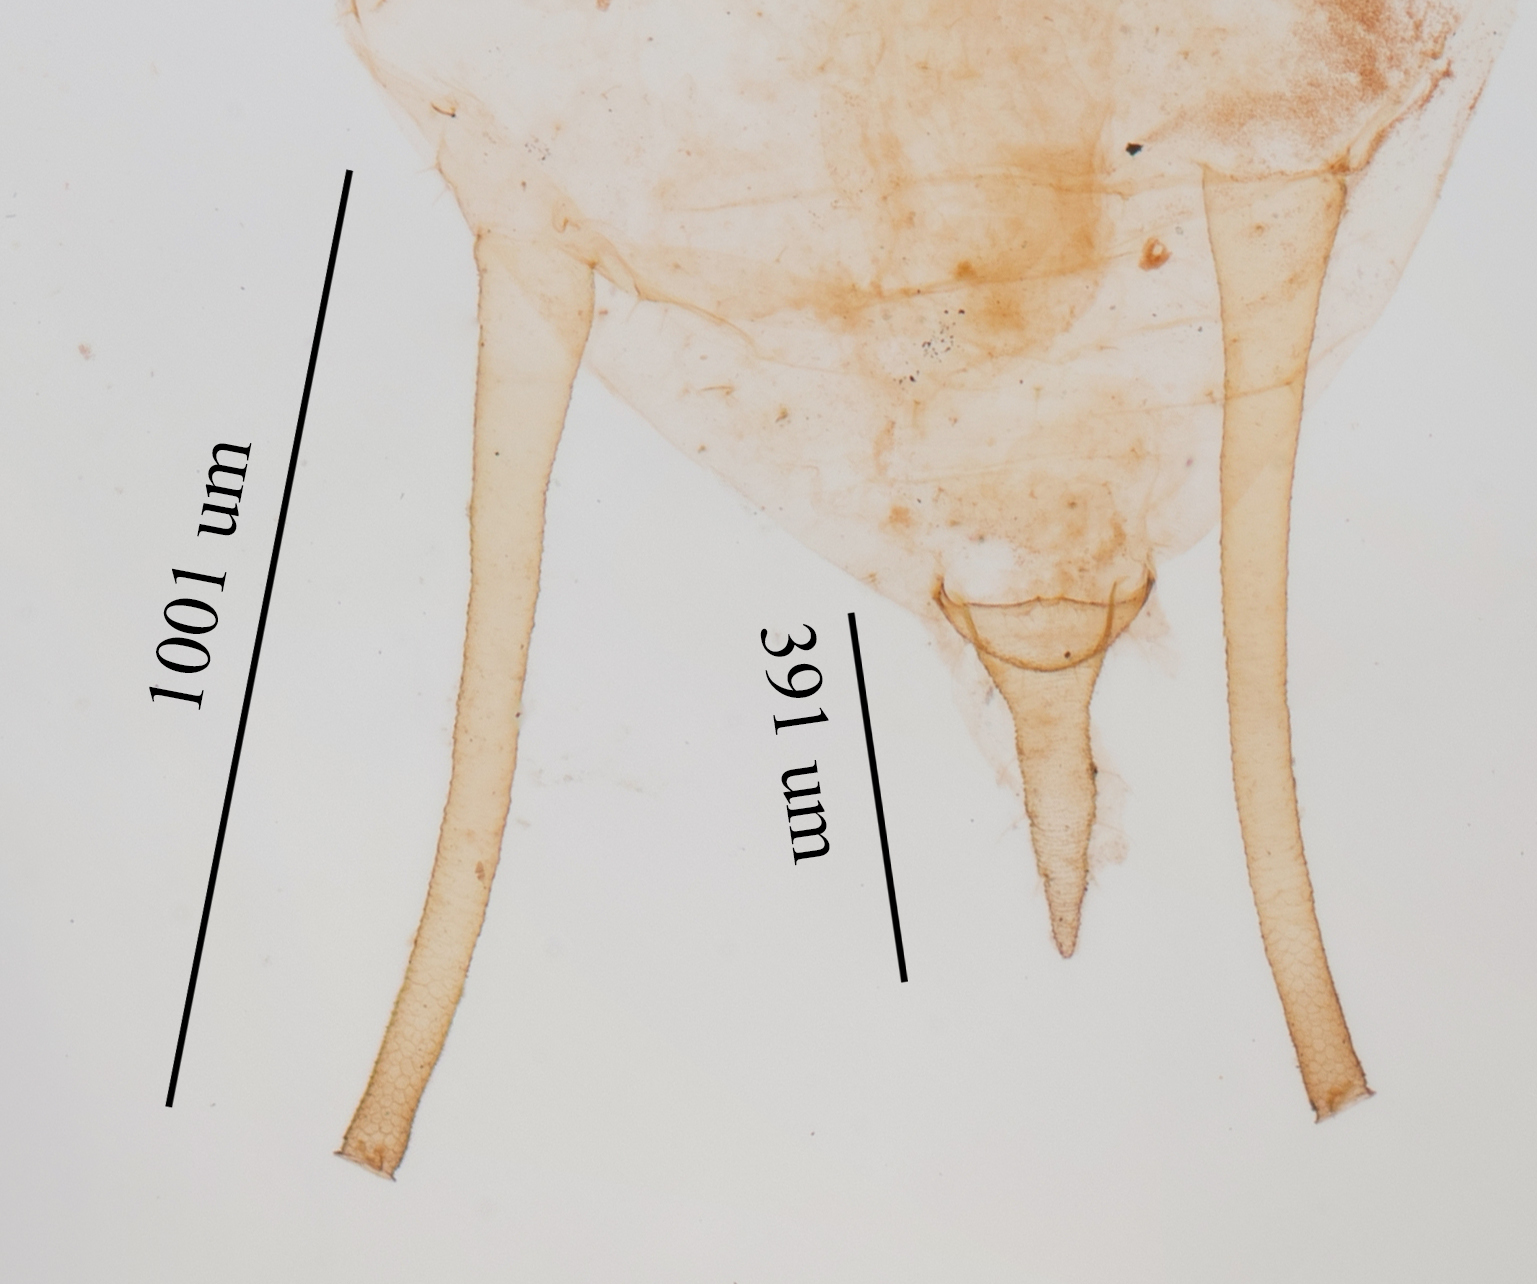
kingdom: Animalia
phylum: Arthropoda
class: Insecta
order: Hemiptera
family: Aphididae
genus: Uroleucon
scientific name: Uroleucon erigeronense
